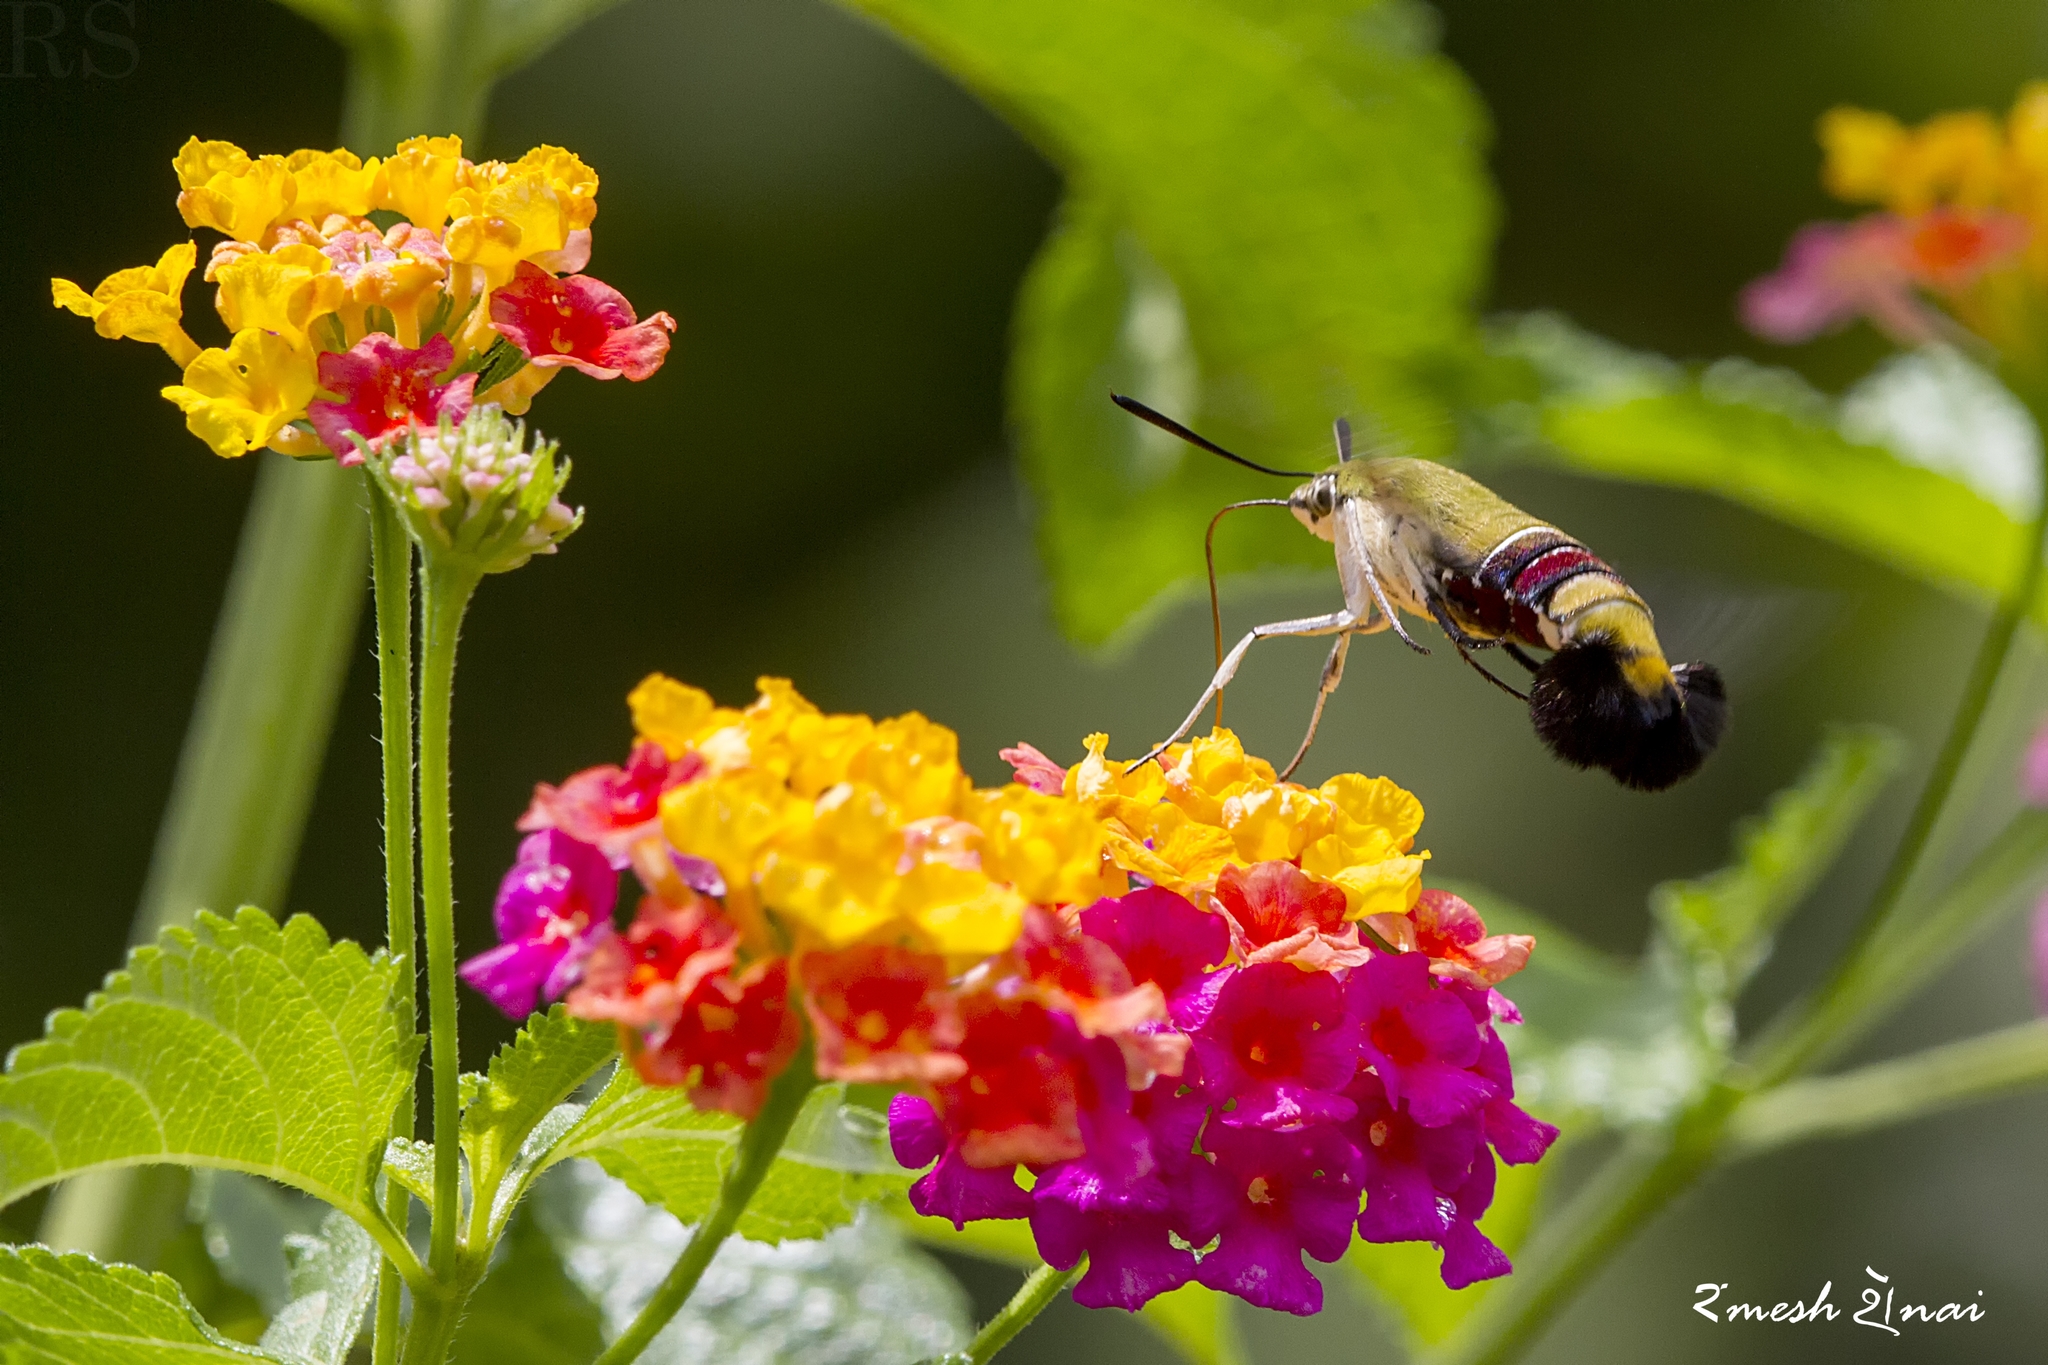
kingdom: Animalia
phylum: Arthropoda
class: Insecta
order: Lepidoptera
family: Sphingidae
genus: Cephonodes
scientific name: Cephonodes hylas
